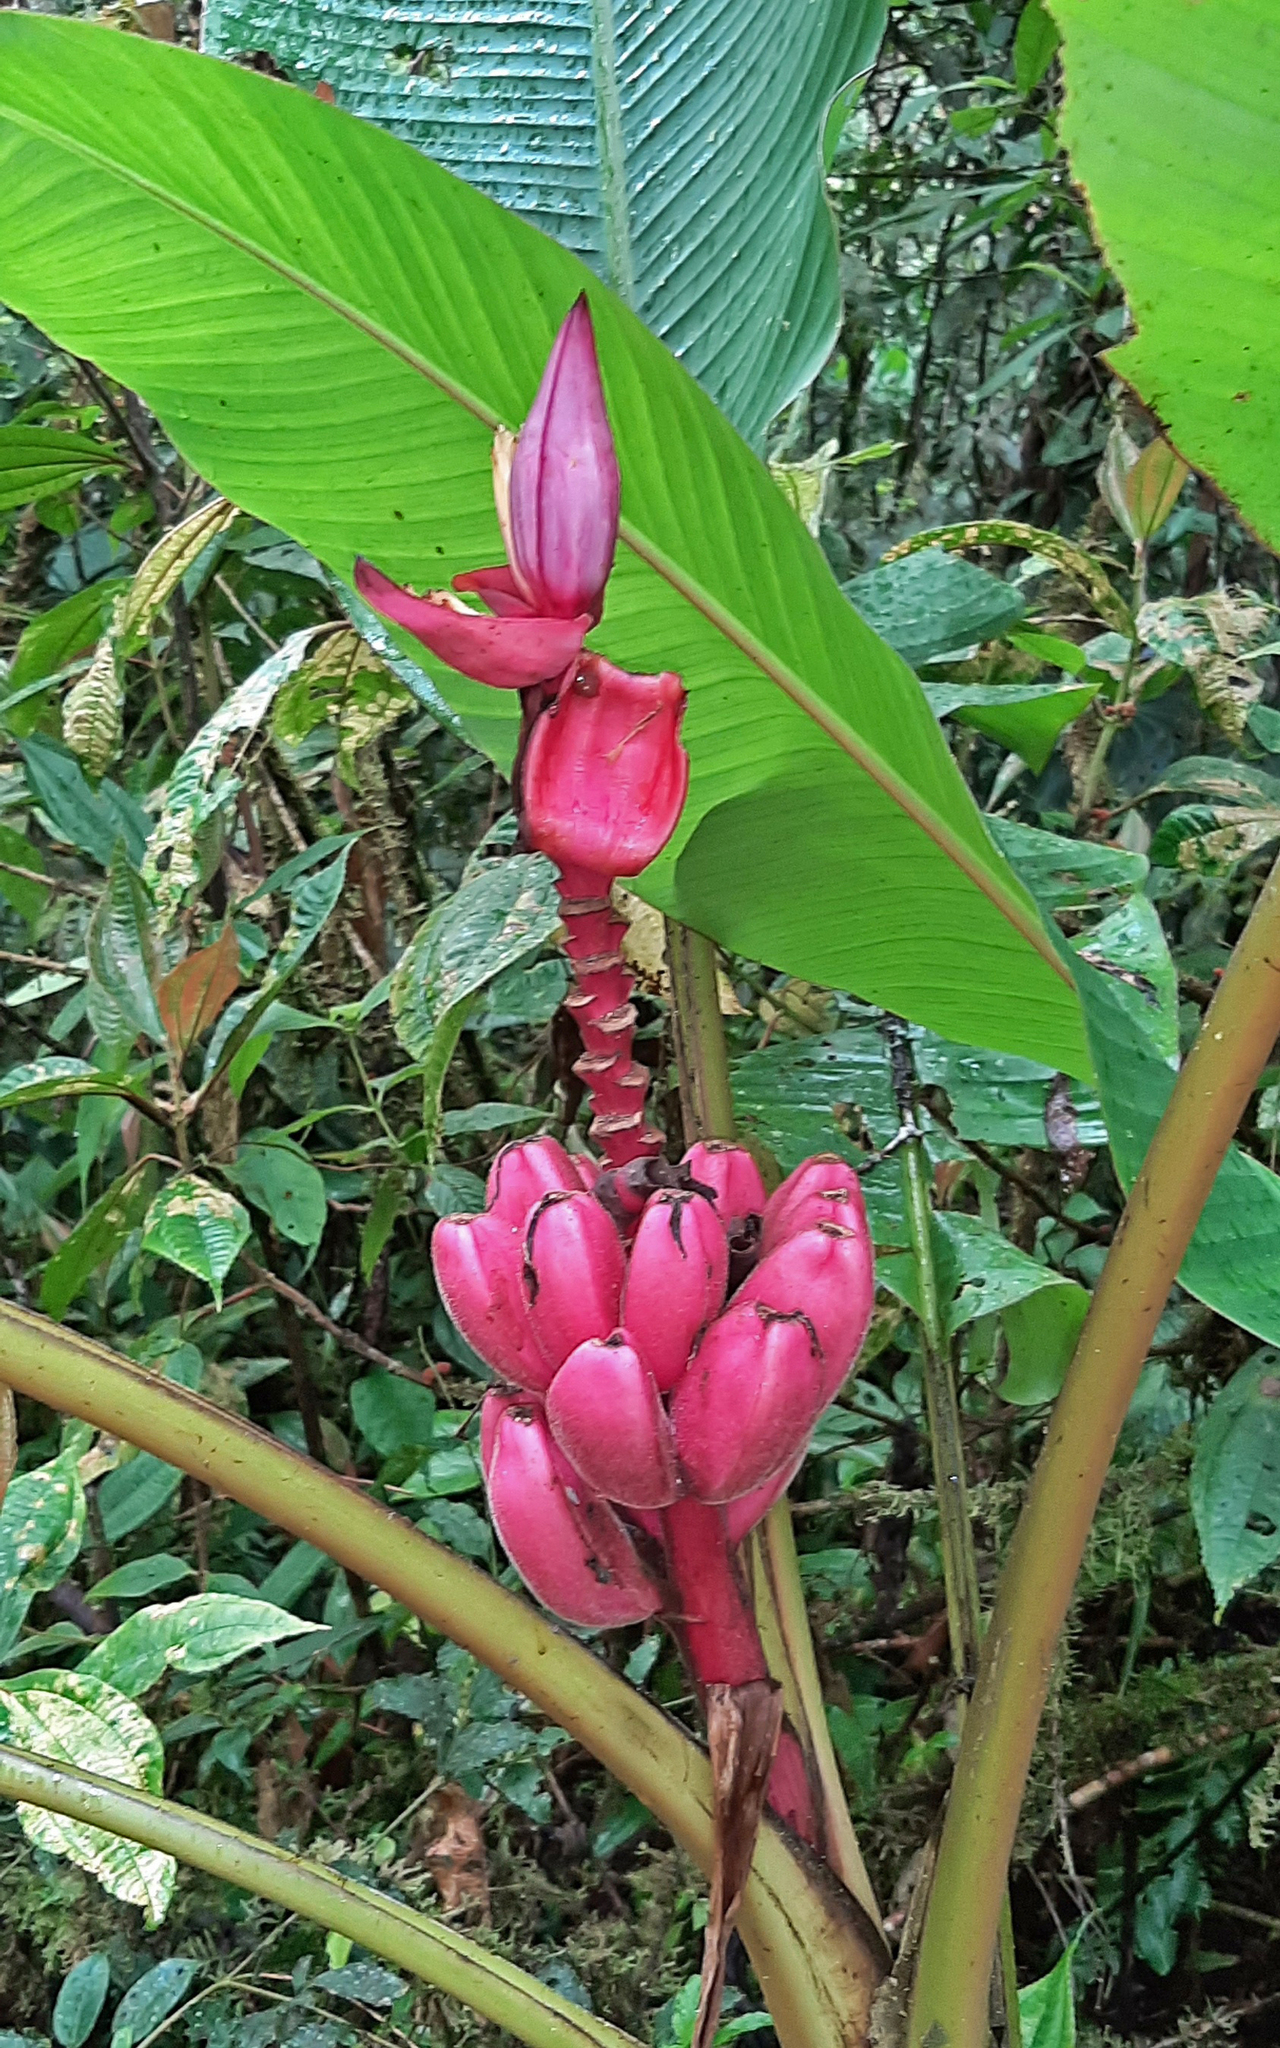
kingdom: Plantae
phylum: Tracheophyta
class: Liliopsida
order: Zingiberales
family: Musaceae
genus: Musa
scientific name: Musa velutina
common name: Pink velvet banana
